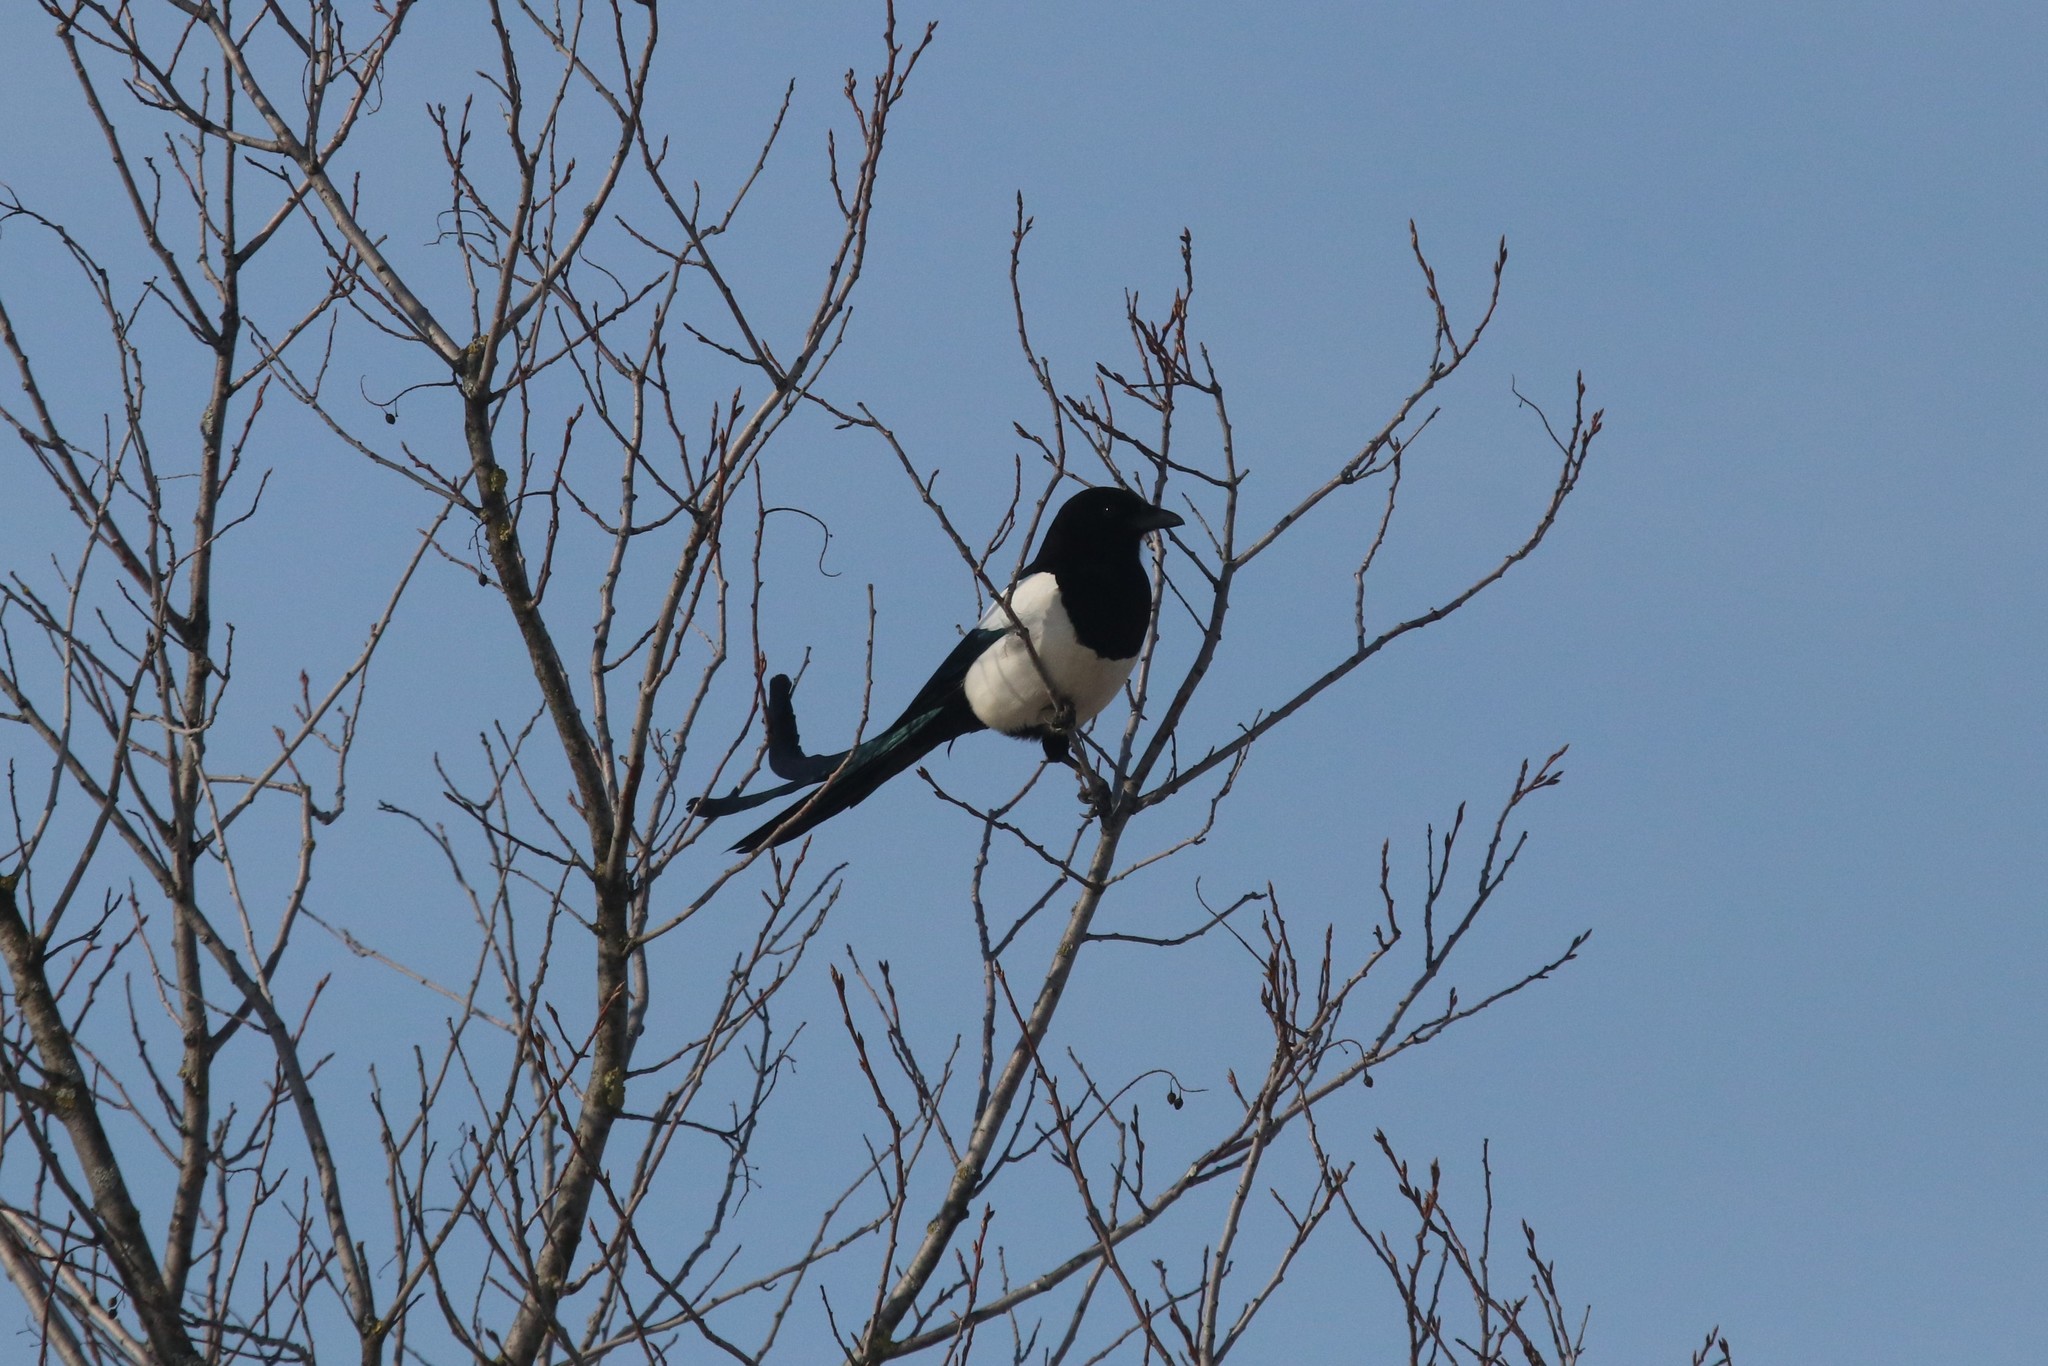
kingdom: Animalia
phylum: Chordata
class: Aves
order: Passeriformes
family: Corvidae
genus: Pica
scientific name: Pica pica
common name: Eurasian magpie
